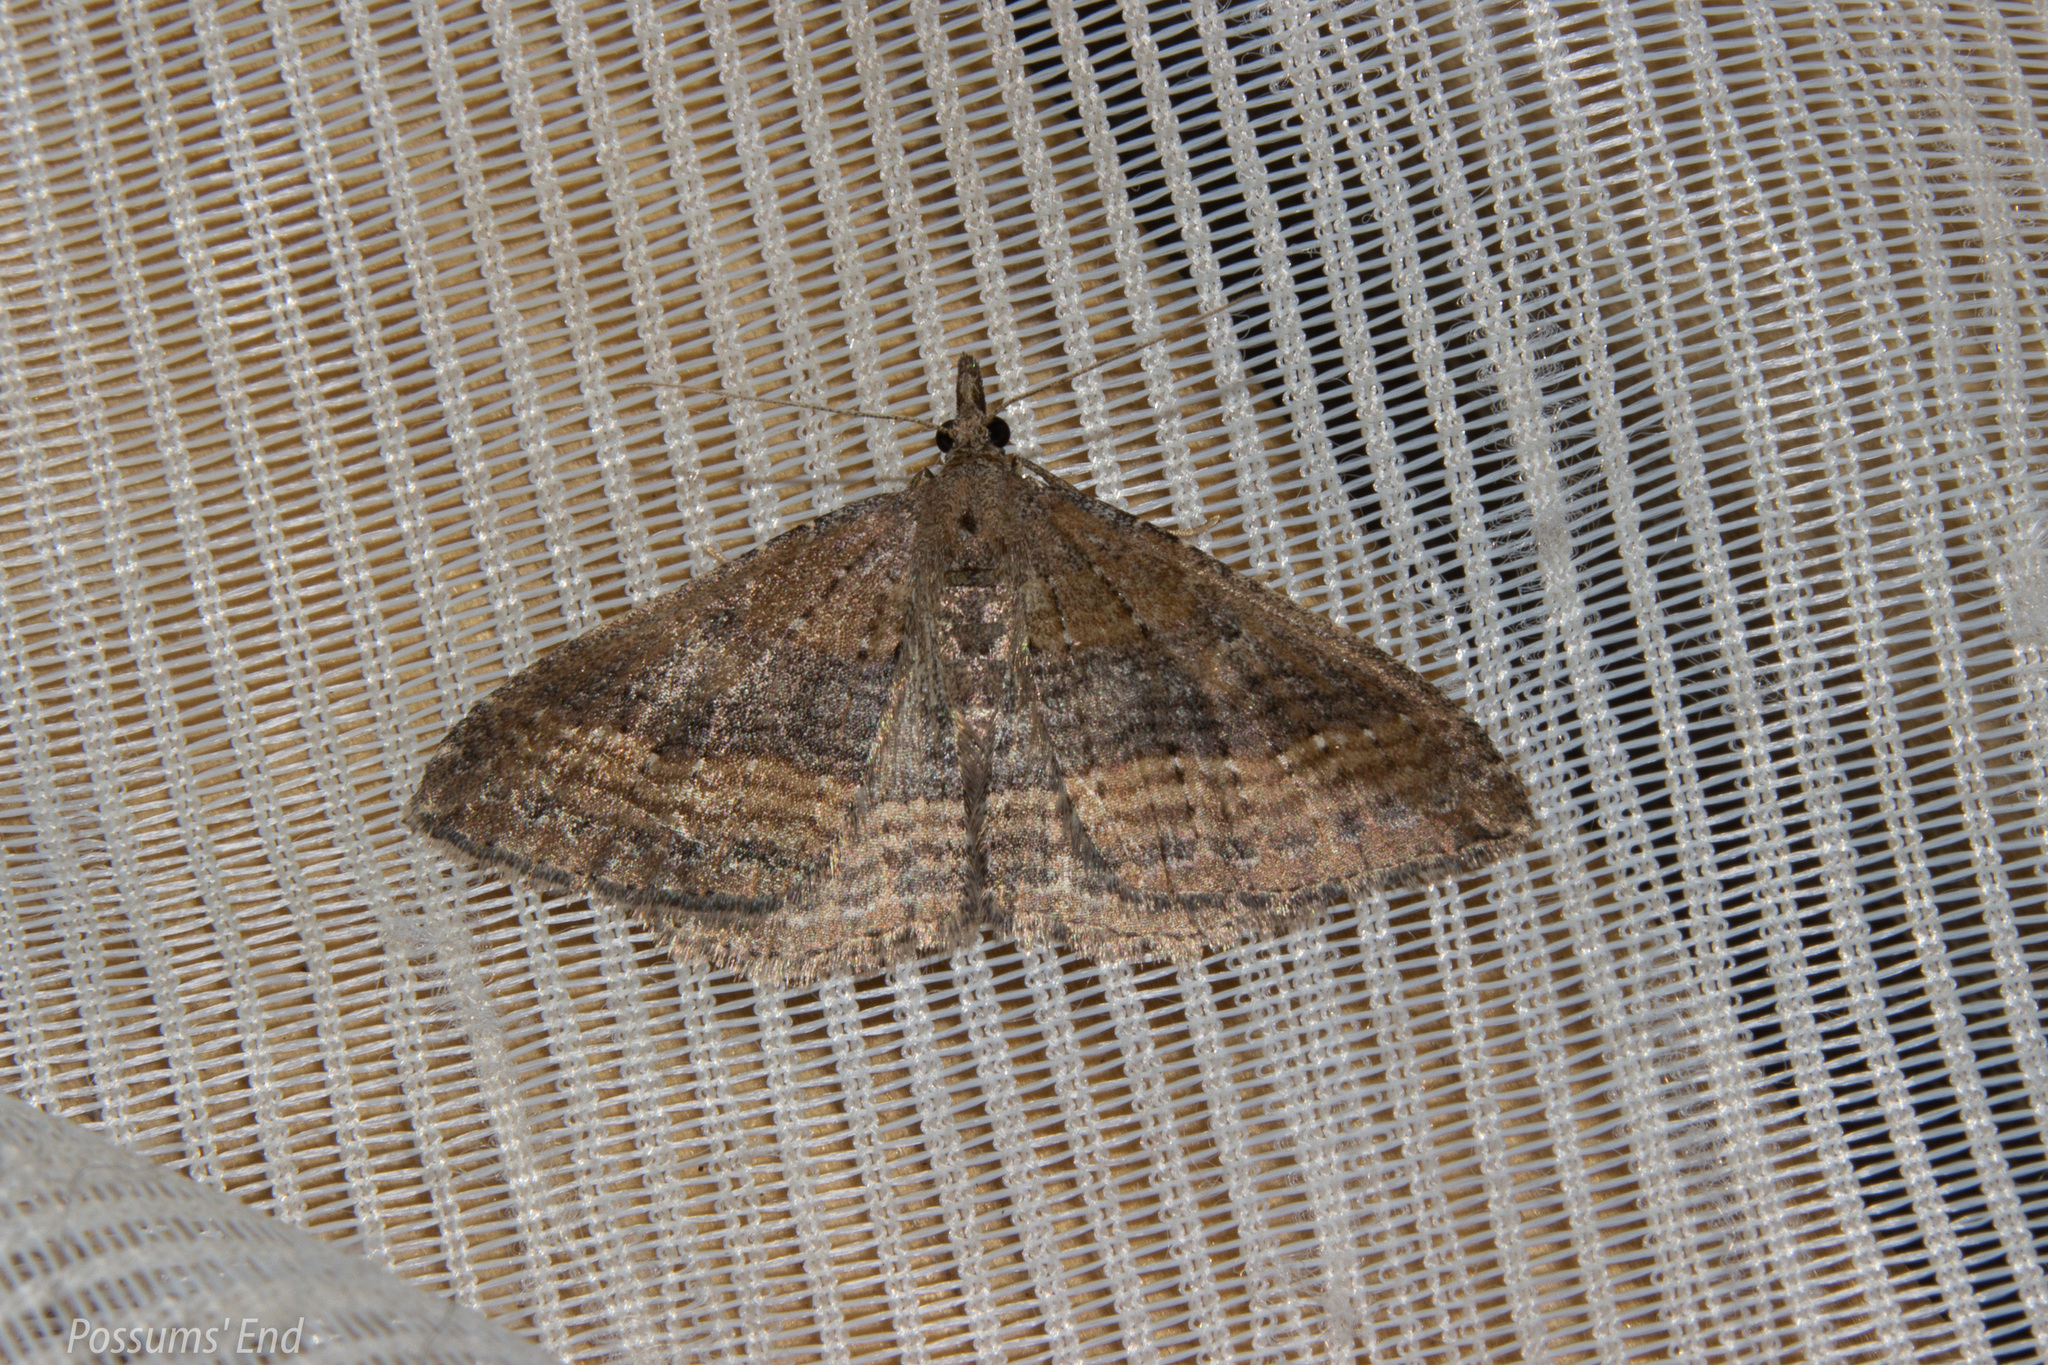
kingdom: Animalia
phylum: Arthropoda
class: Insecta
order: Lepidoptera
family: Geometridae
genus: Epyaxa
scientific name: Epyaxa venipunctata
